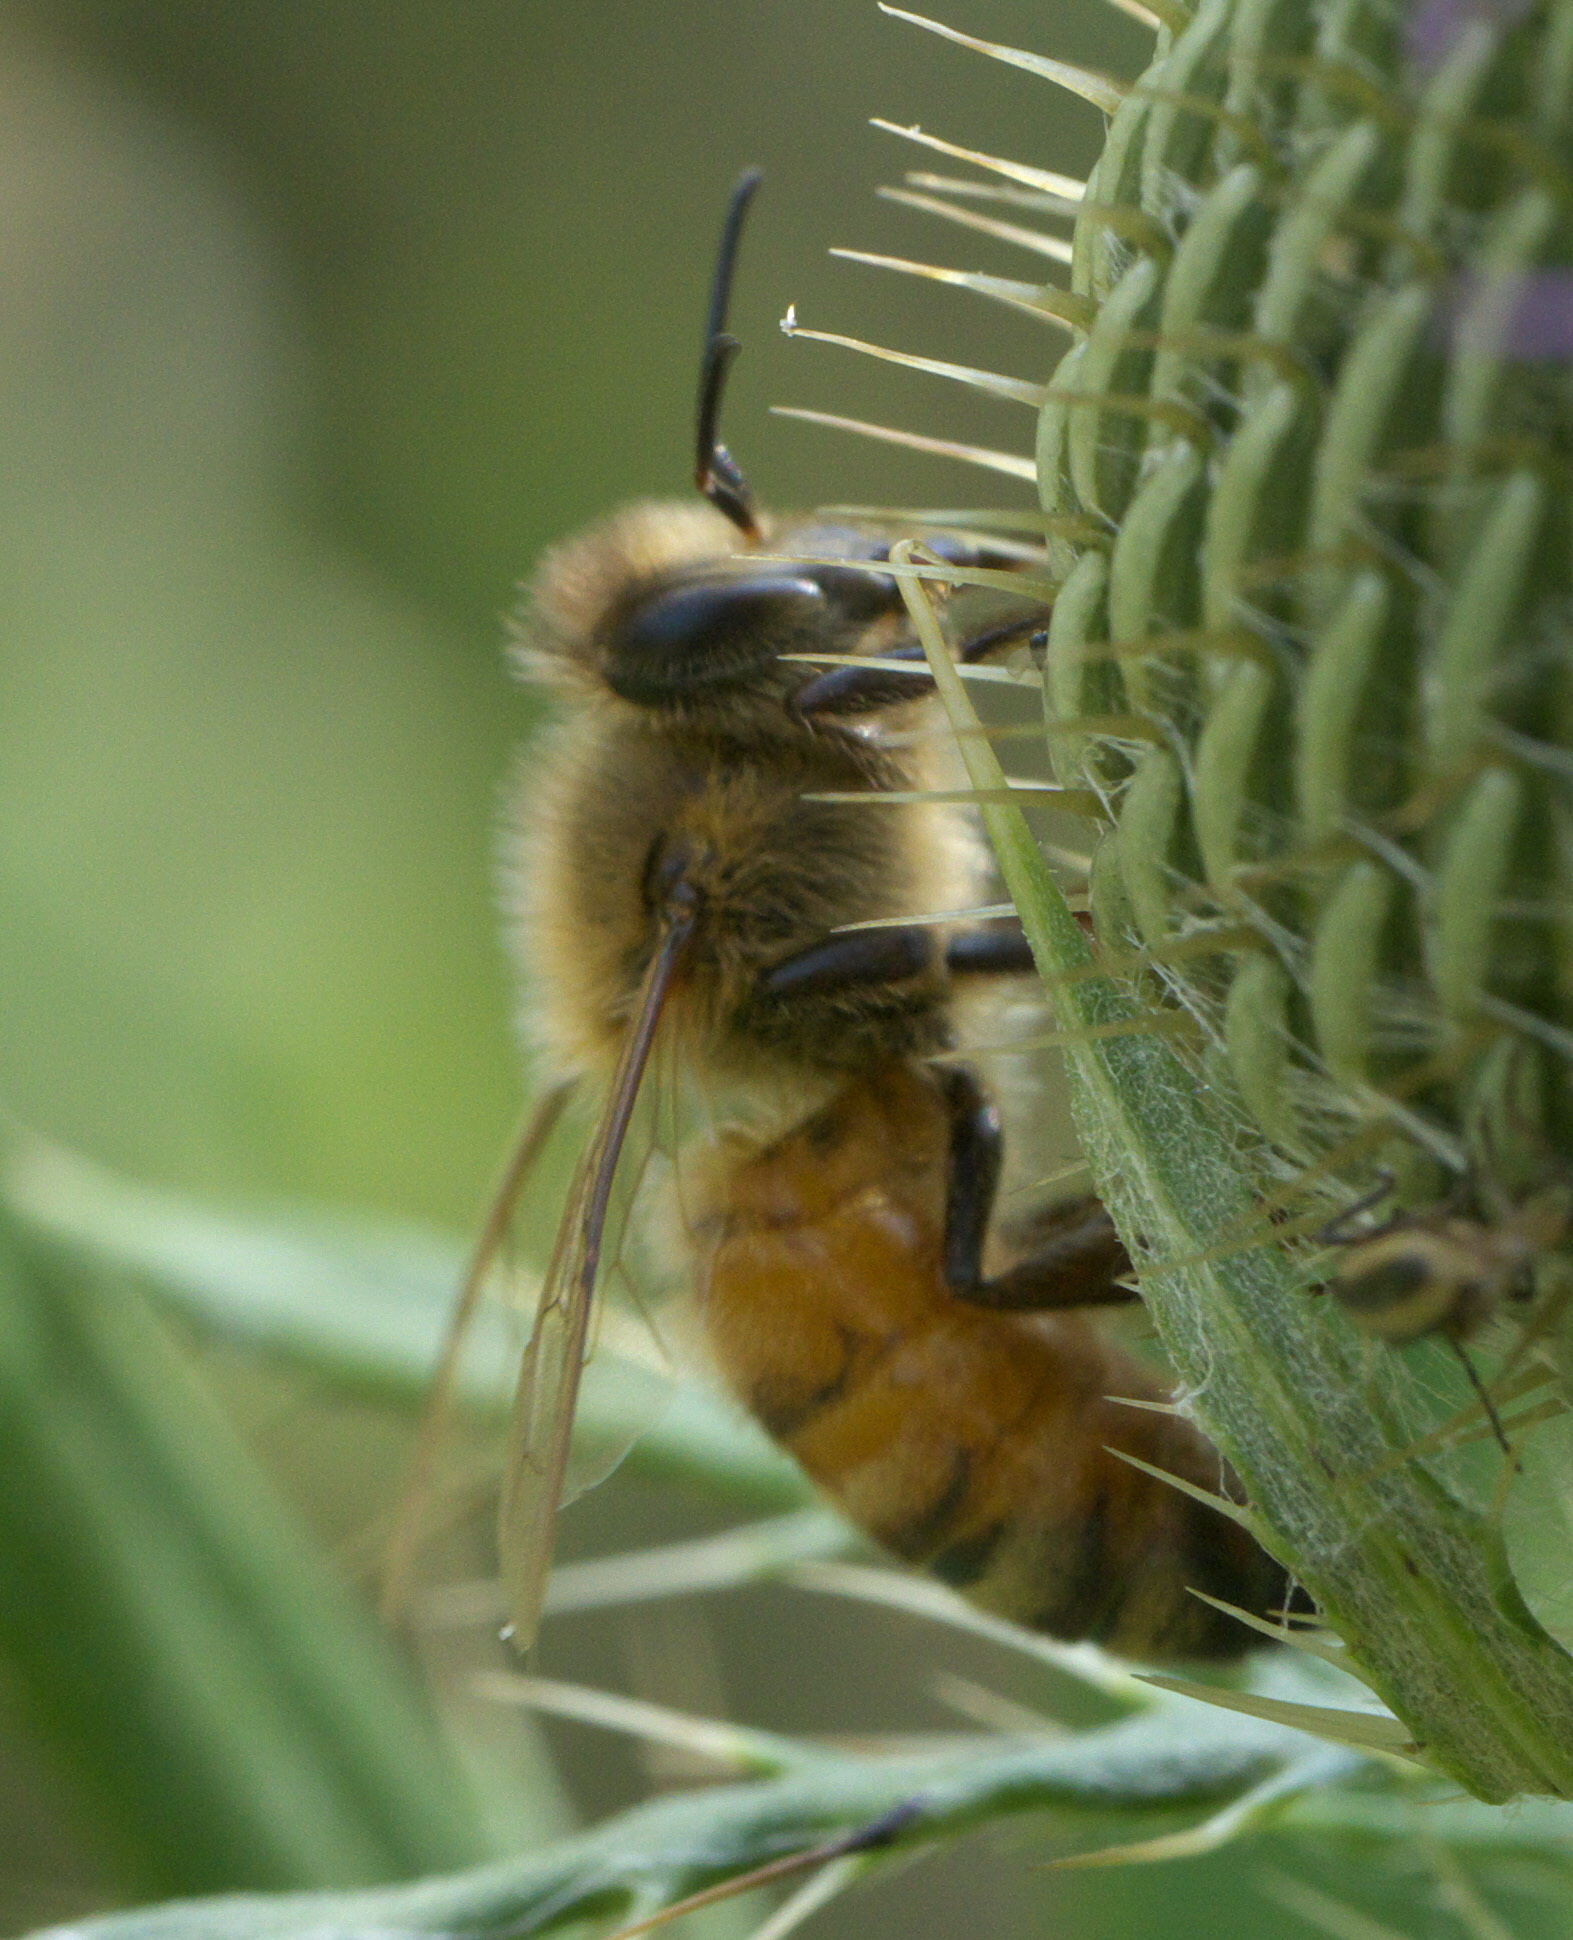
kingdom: Animalia
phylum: Arthropoda
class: Insecta
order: Hymenoptera
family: Apidae
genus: Apis
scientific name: Apis mellifera
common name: Honey bee
